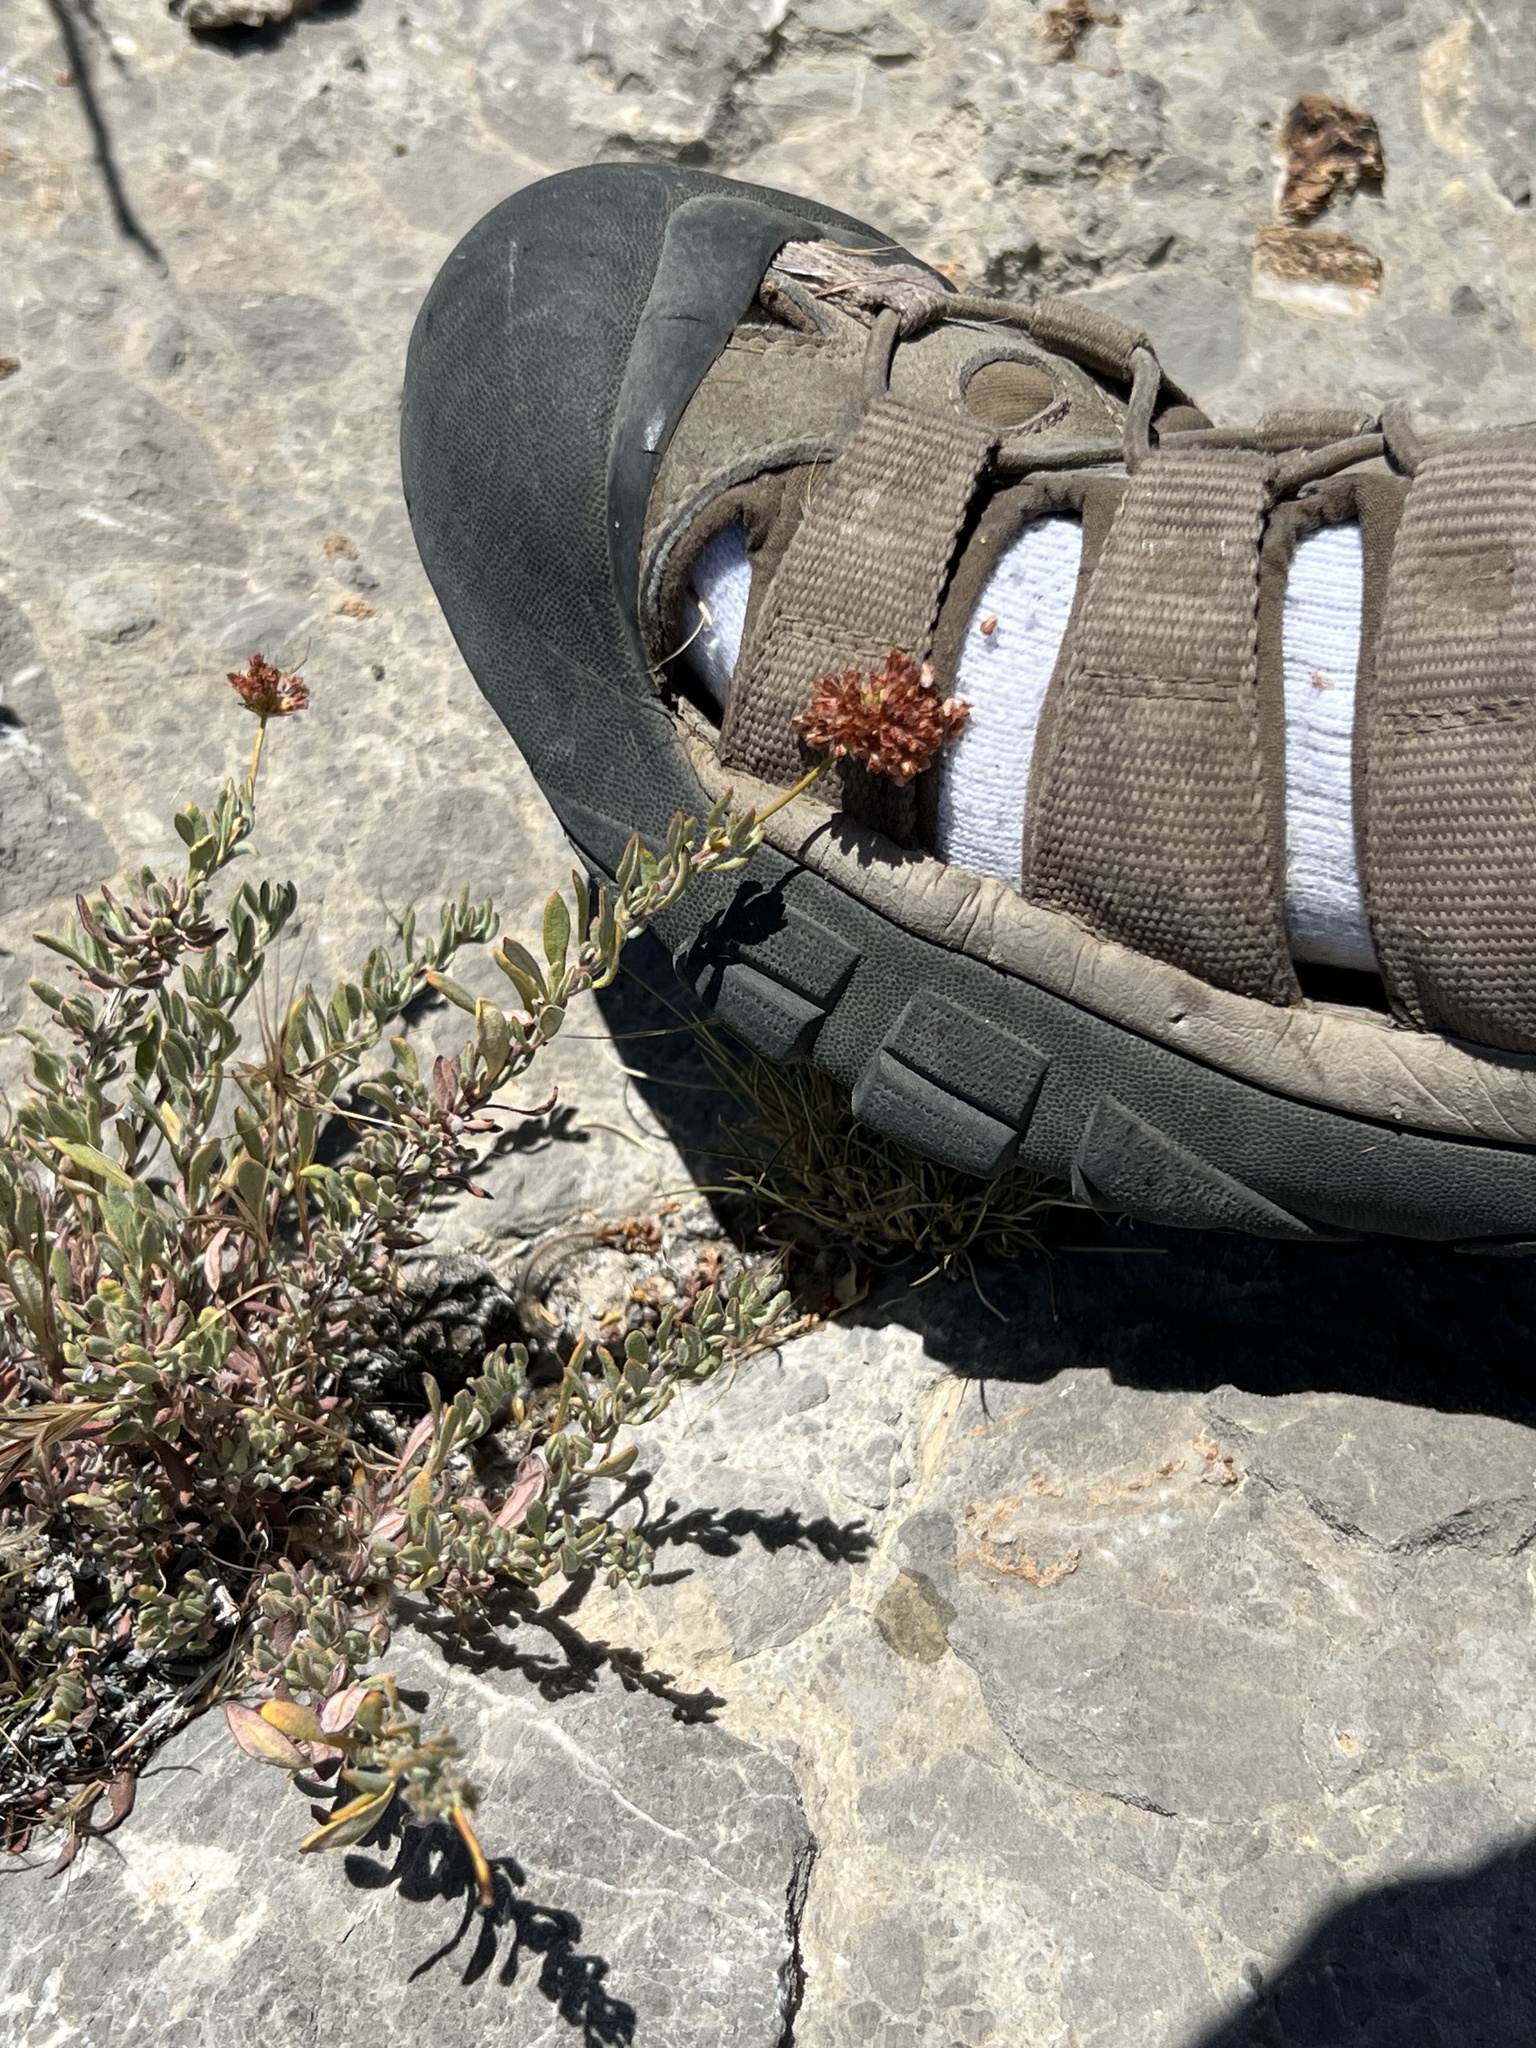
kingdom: Plantae
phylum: Tracheophyta
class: Magnoliopsida
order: Caryophyllales
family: Polygonaceae
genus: Eriogonum
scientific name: Eriogonum fasciculatum
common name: California wild buckwheat
